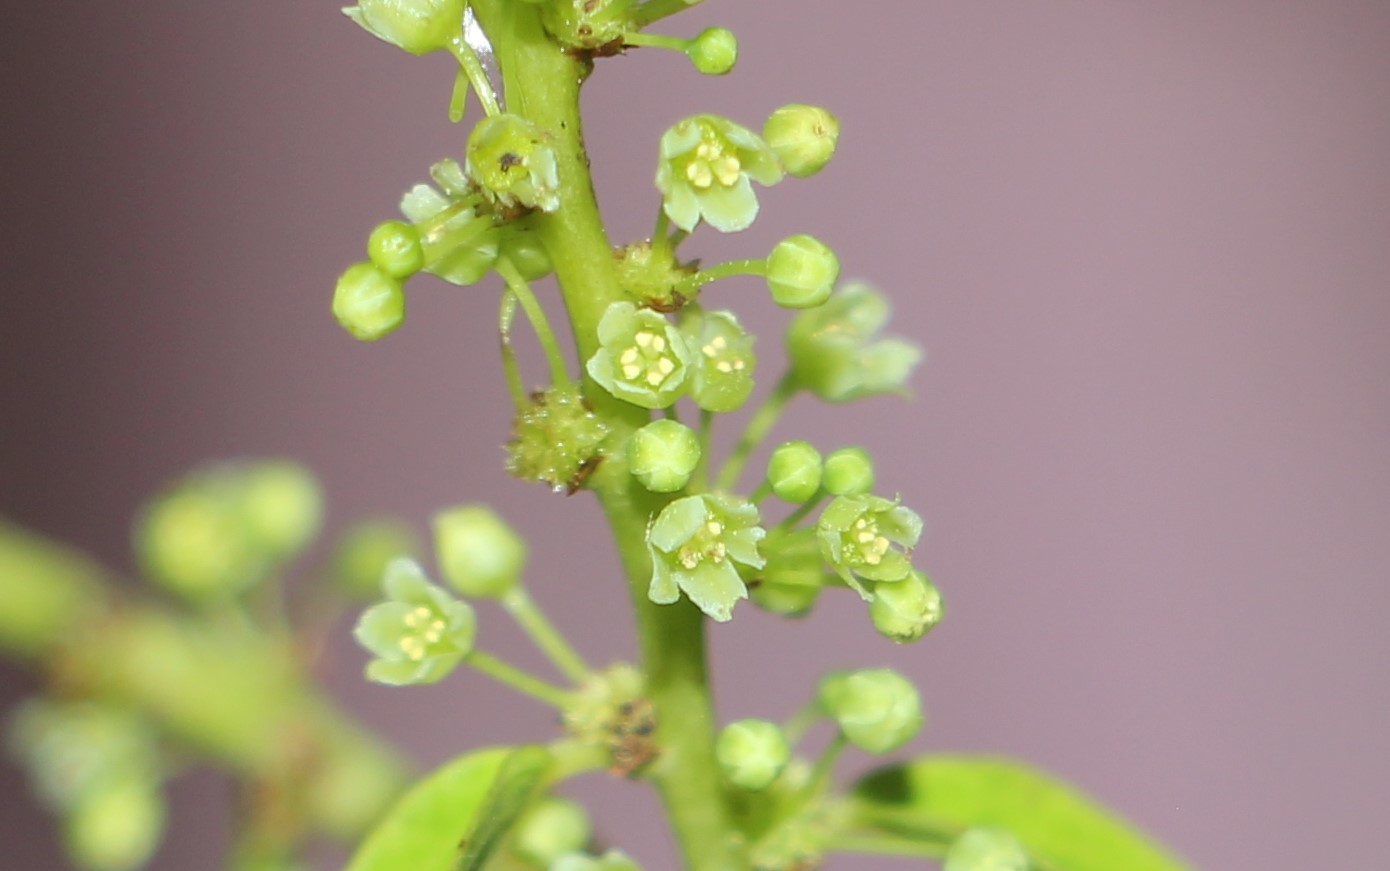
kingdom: Plantae
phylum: Tracheophyta
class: Magnoliopsida
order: Malpighiales
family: Phyllanthaceae
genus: Phyllanthus
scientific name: Phyllanthus attenuatus
